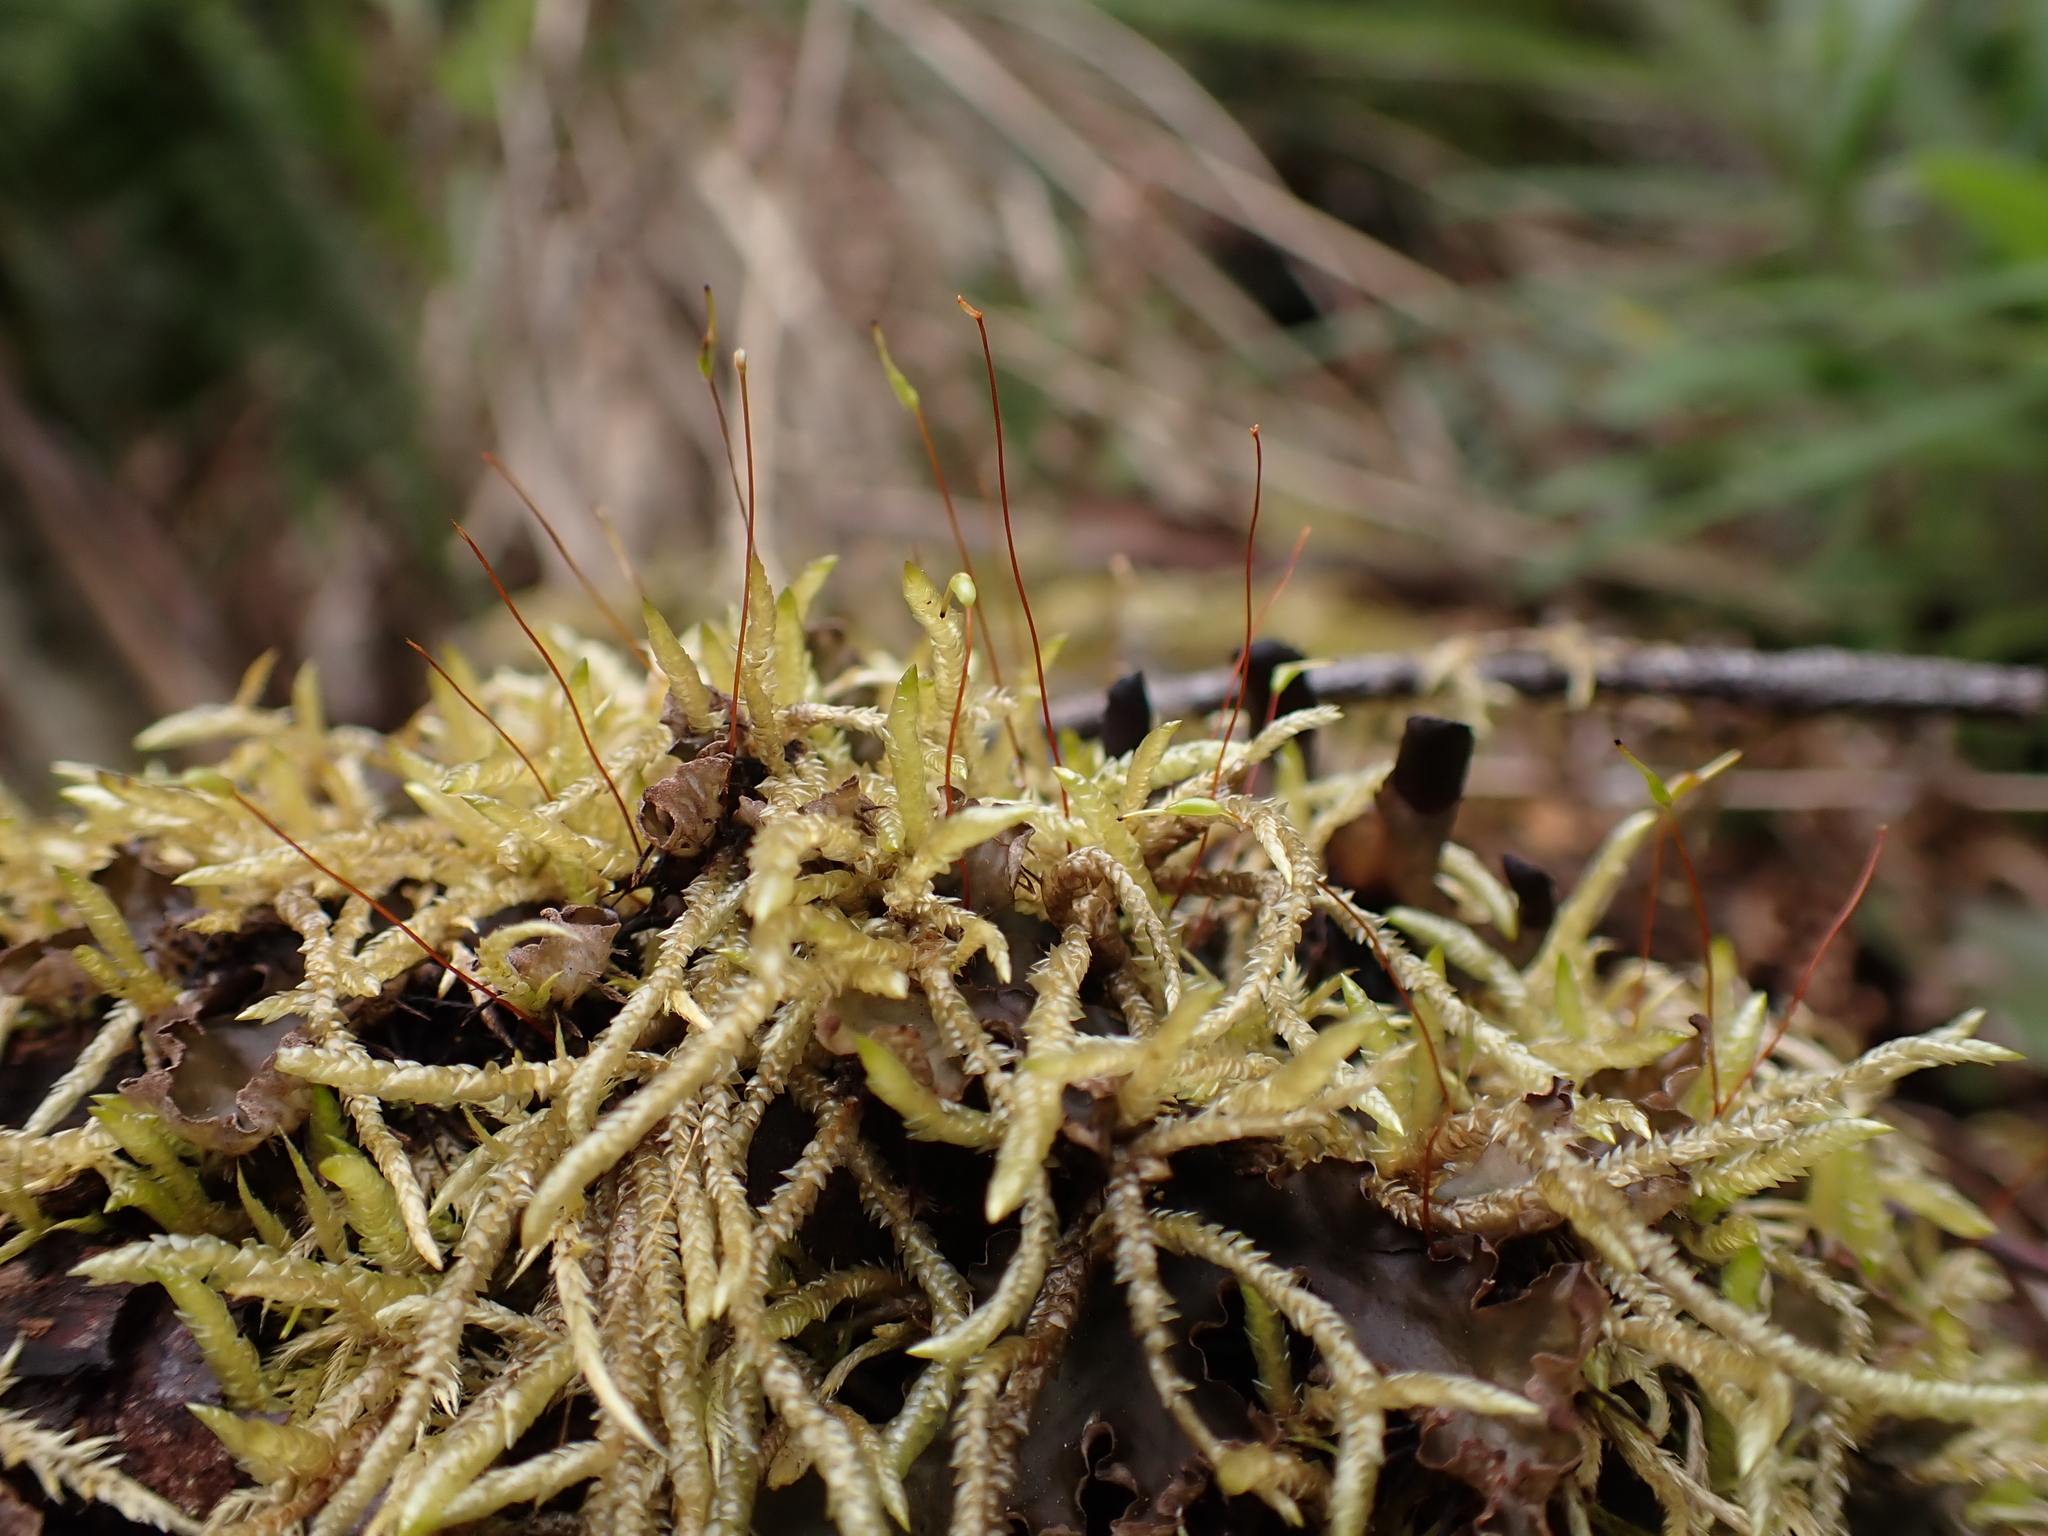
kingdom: Plantae
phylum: Bryophyta
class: Bryopsida
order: Hypnales
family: Acrocladiaceae
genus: Acrocladium
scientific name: Acrocladium chlamydophyllum
